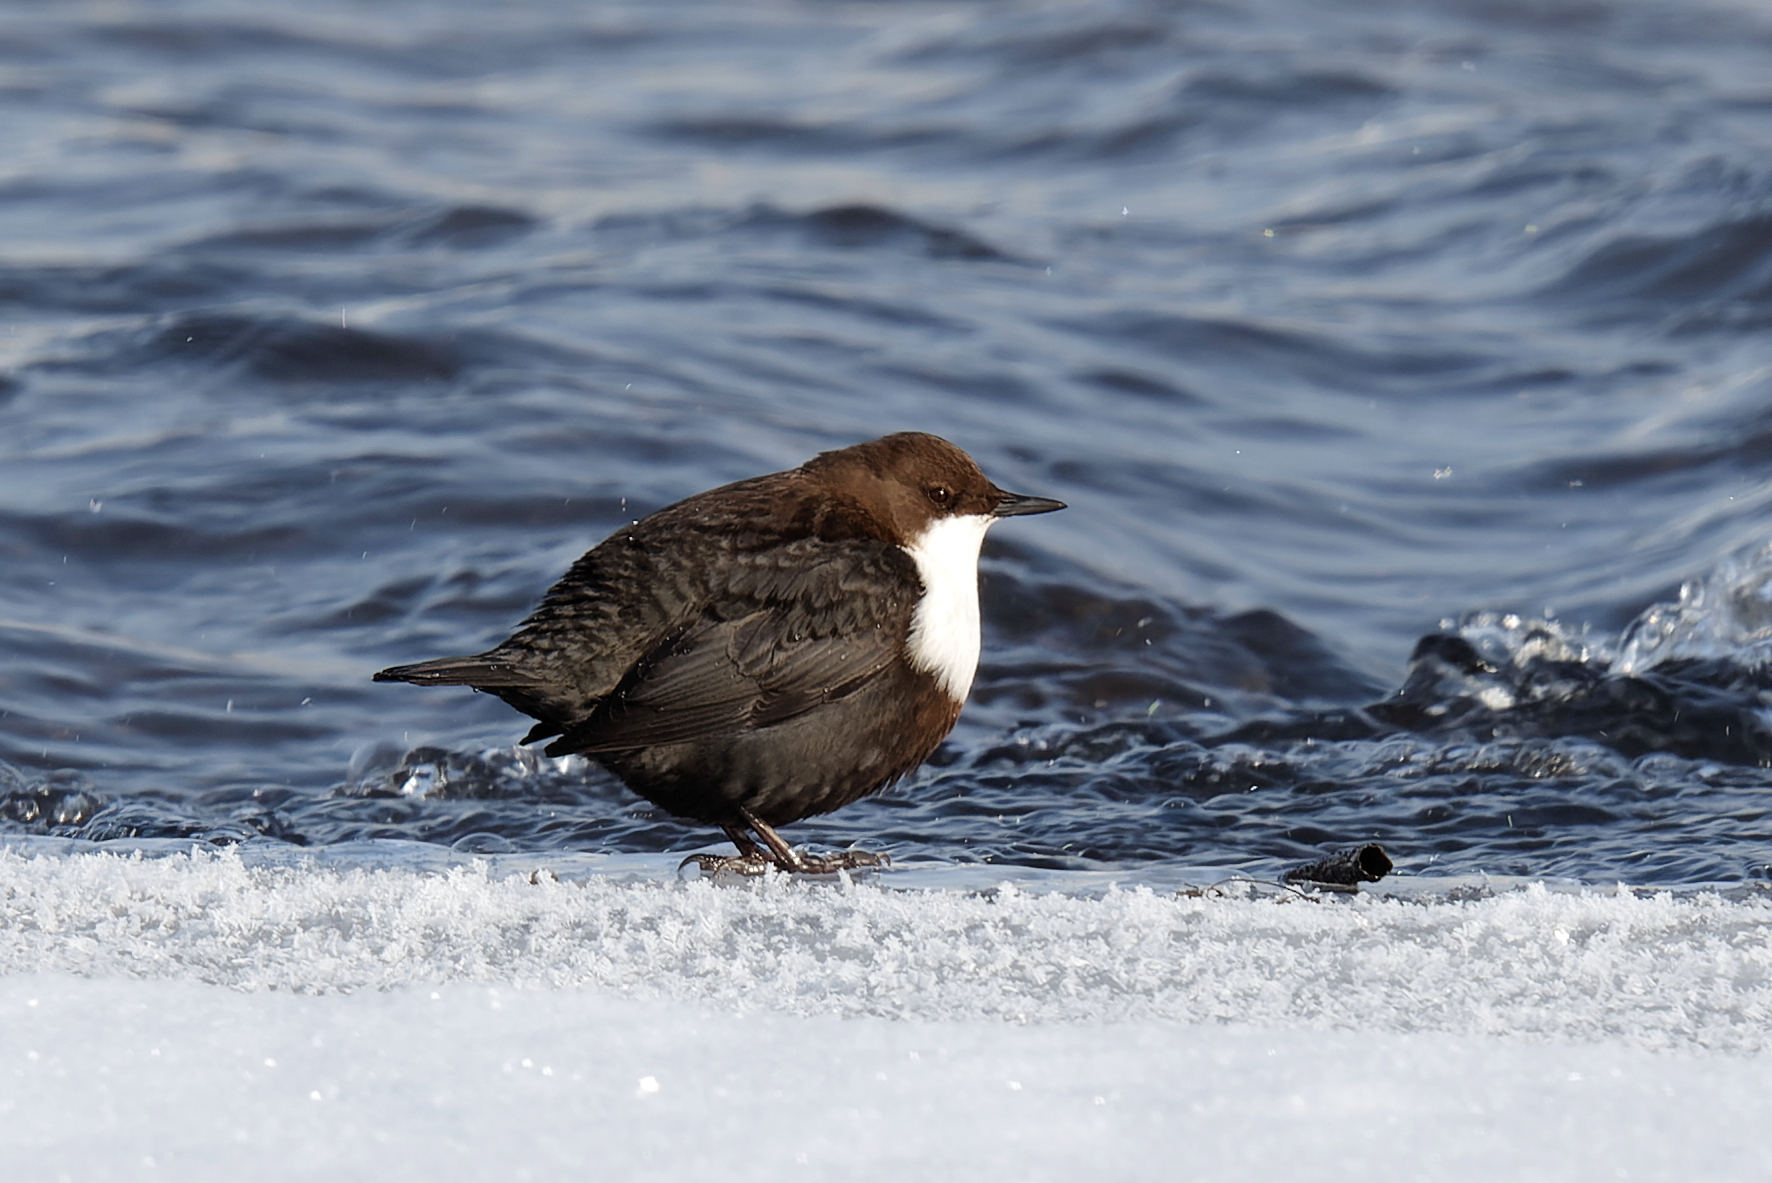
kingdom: Animalia
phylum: Chordata
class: Aves
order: Passeriformes
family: Cinclidae
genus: Cinclus
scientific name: Cinclus cinclus
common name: White-throated dipper
